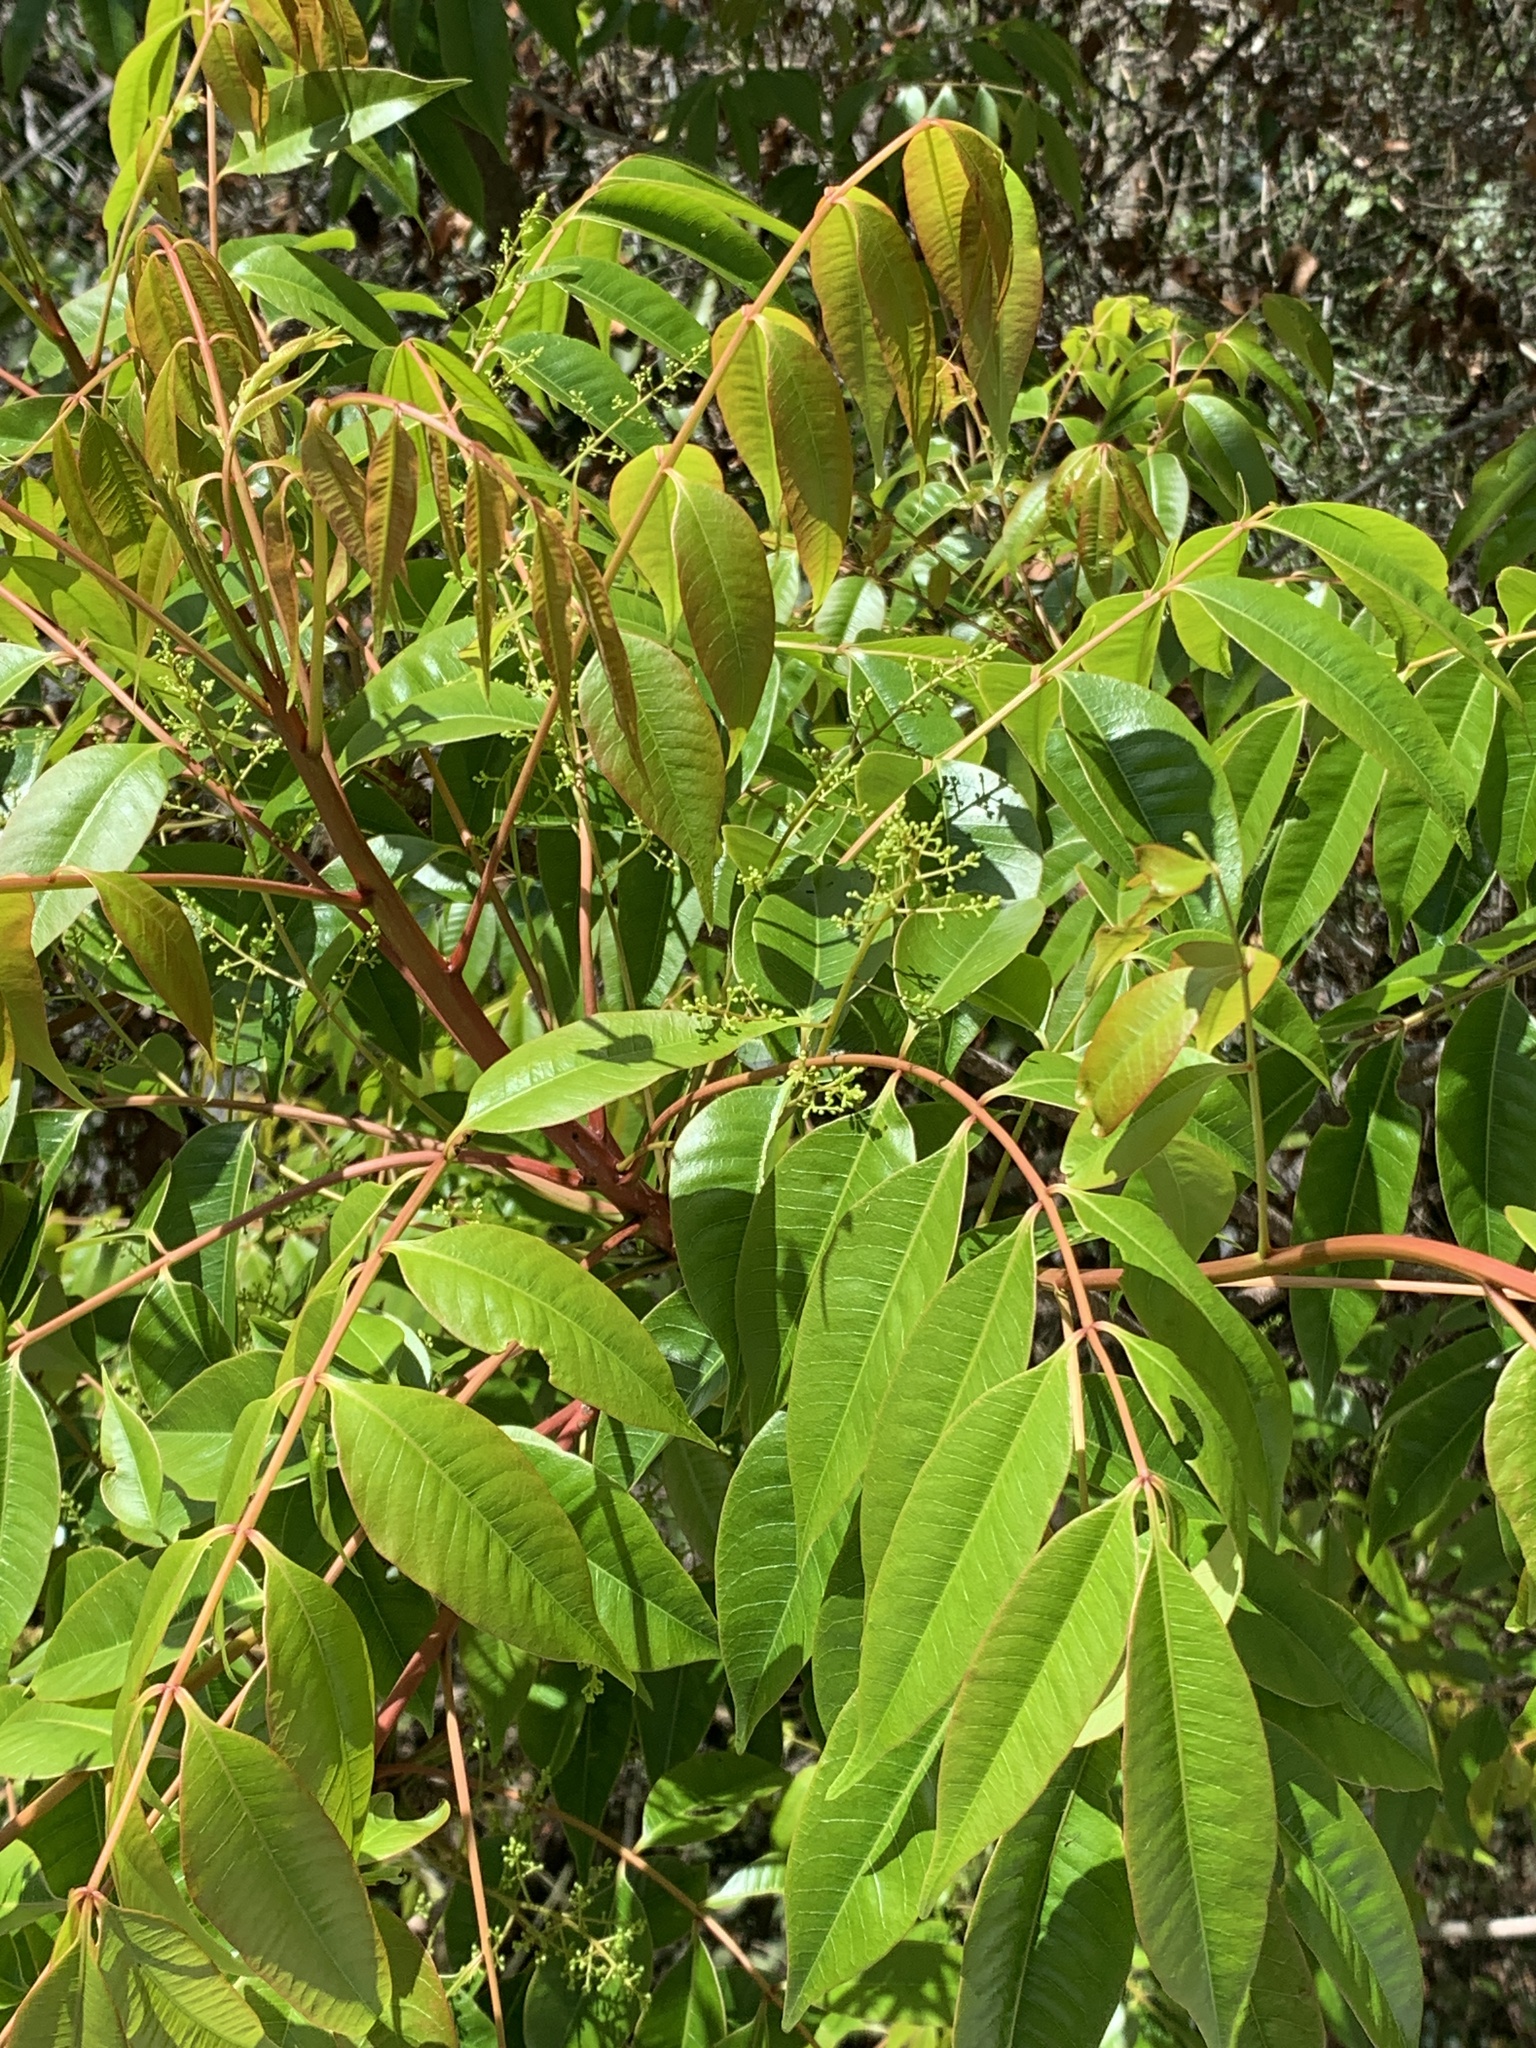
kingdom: Plantae
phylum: Tracheophyta
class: Magnoliopsida
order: Rosales
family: Rosaceae
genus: Prunus
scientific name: Prunus phaeosticta
